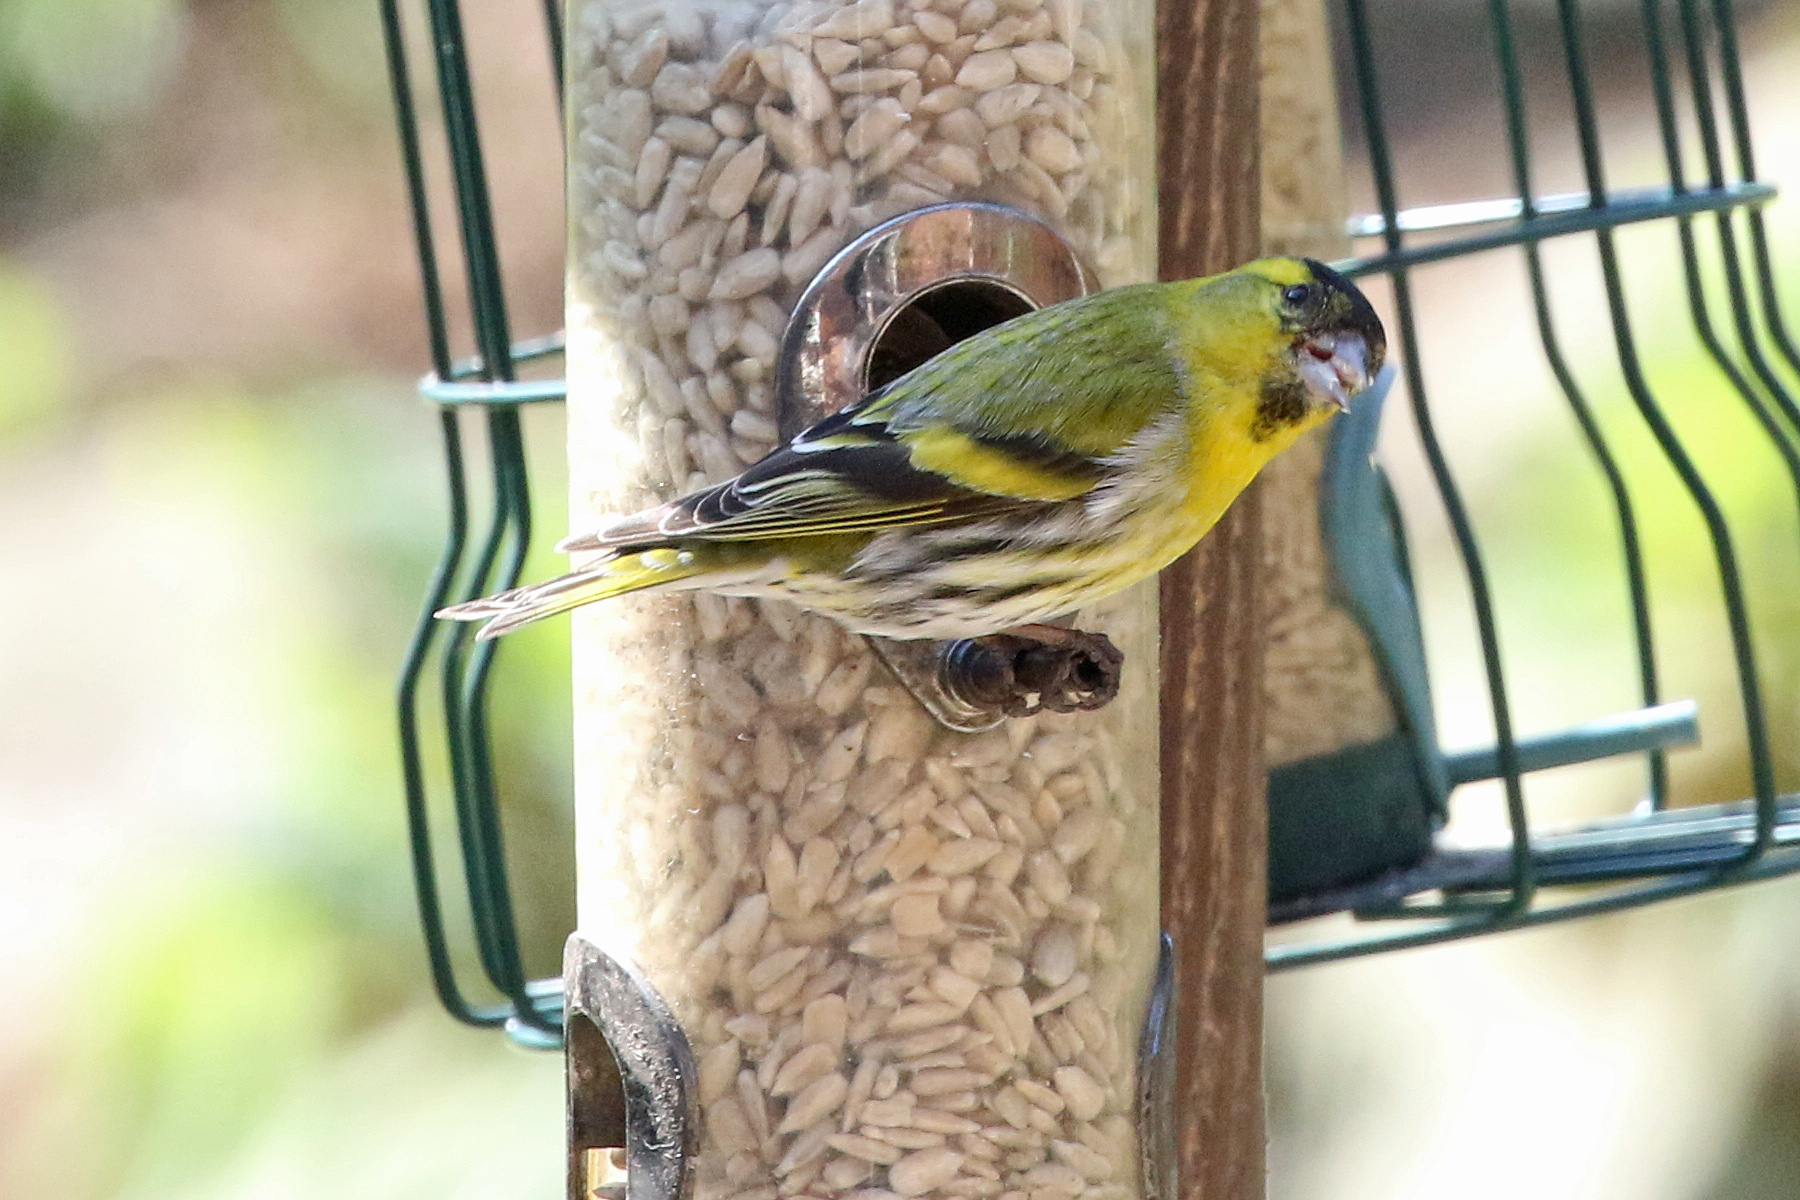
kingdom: Animalia
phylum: Chordata
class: Aves
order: Passeriformes
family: Fringillidae
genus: Spinus
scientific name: Spinus spinus
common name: Eurasian siskin
